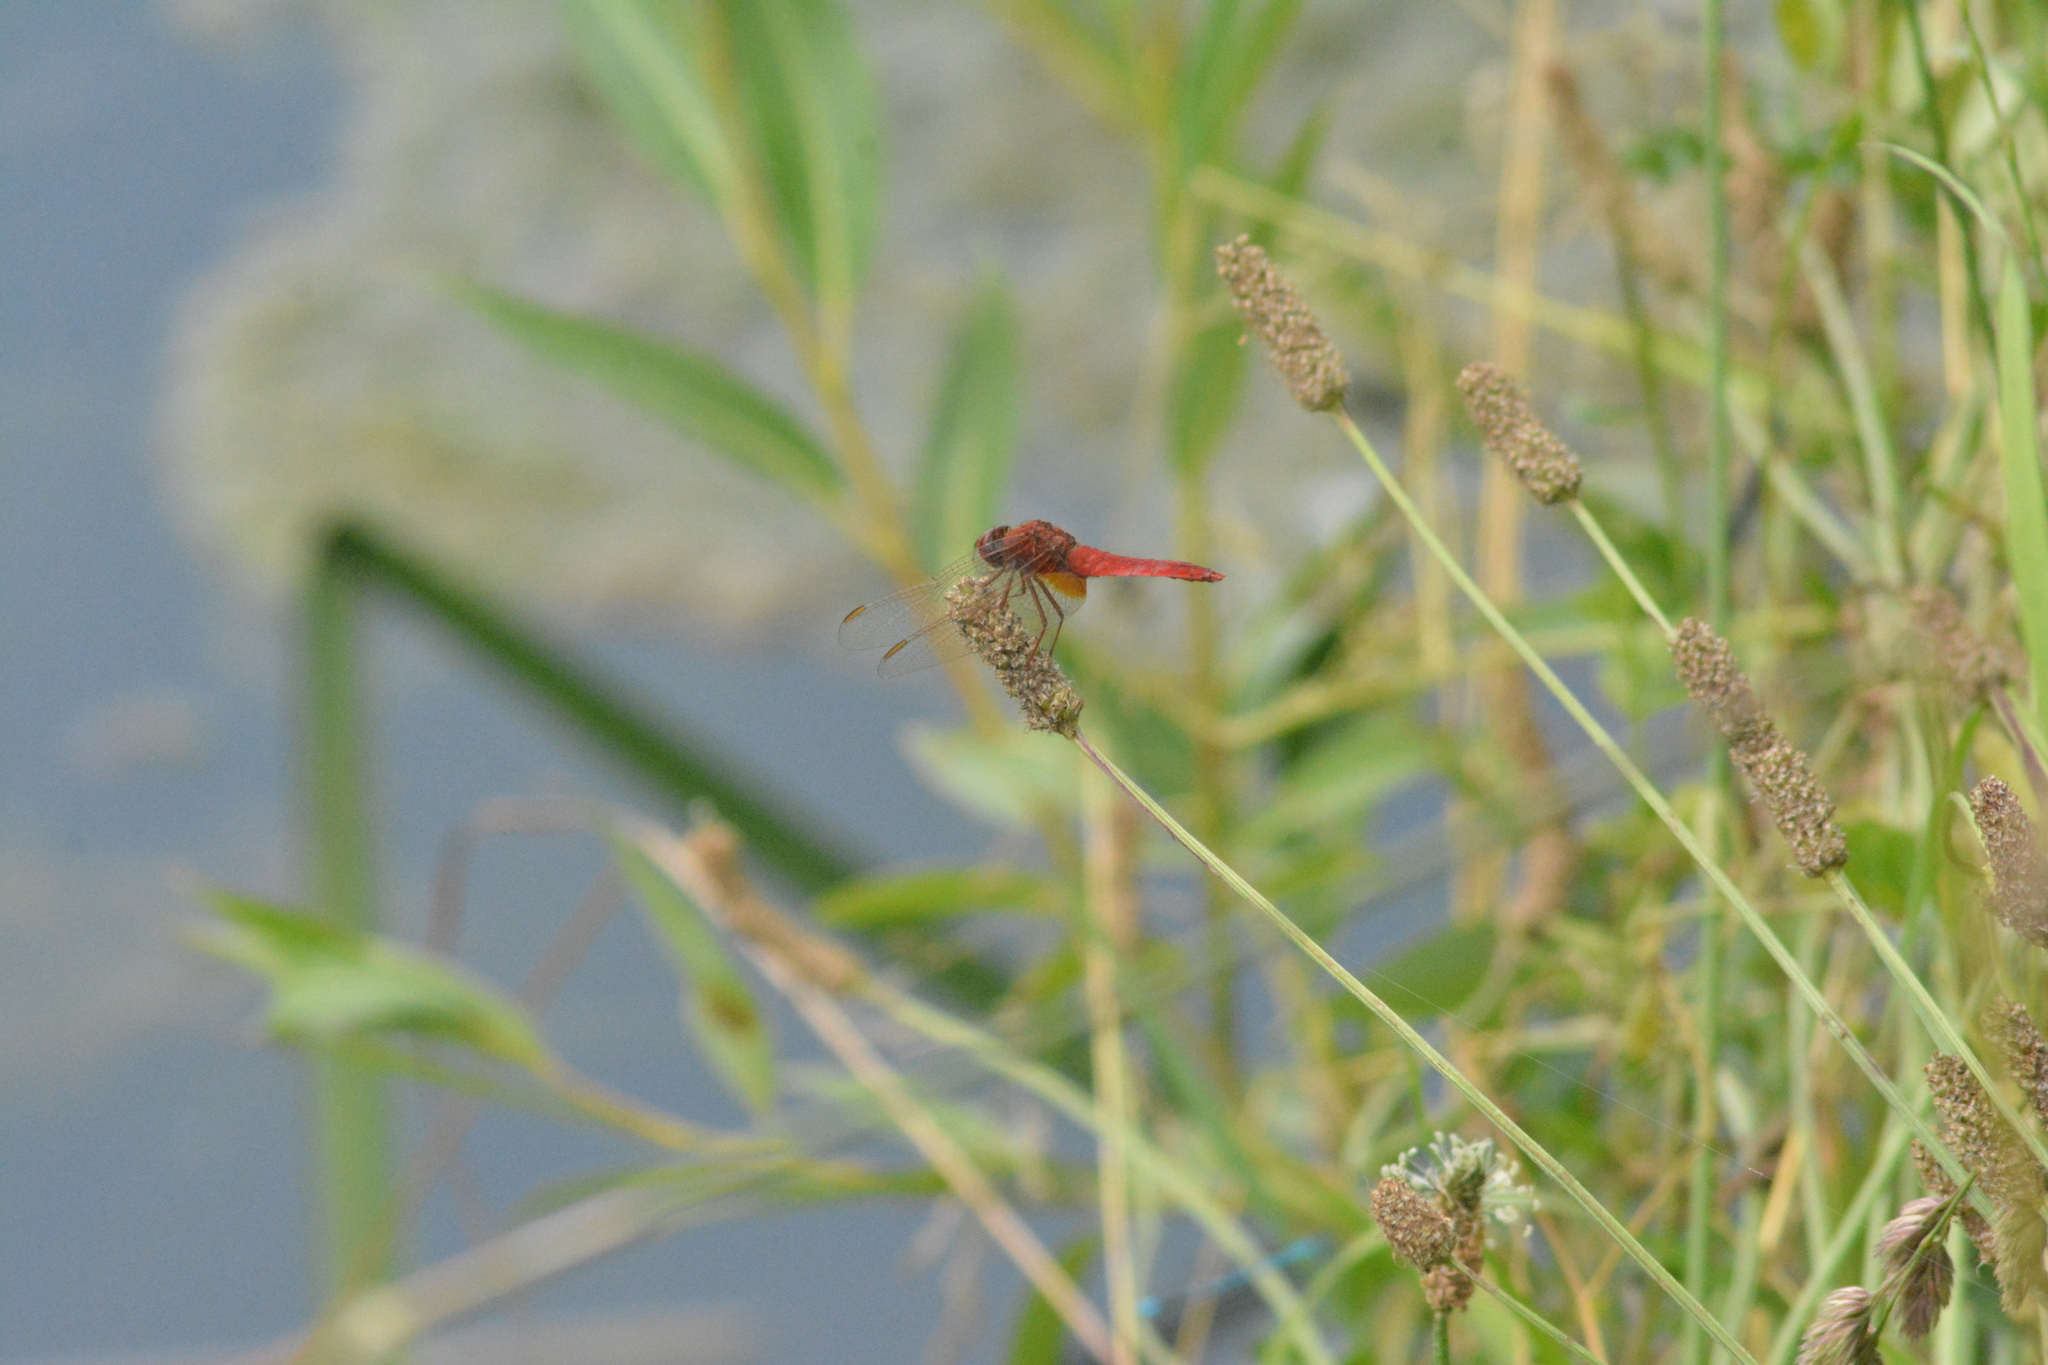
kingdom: Animalia
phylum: Arthropoda
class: Insecta
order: Odonata
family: Libellulidae
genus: Crocothemis
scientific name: Crocothemis erythraea
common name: Scarlet dragonfly
